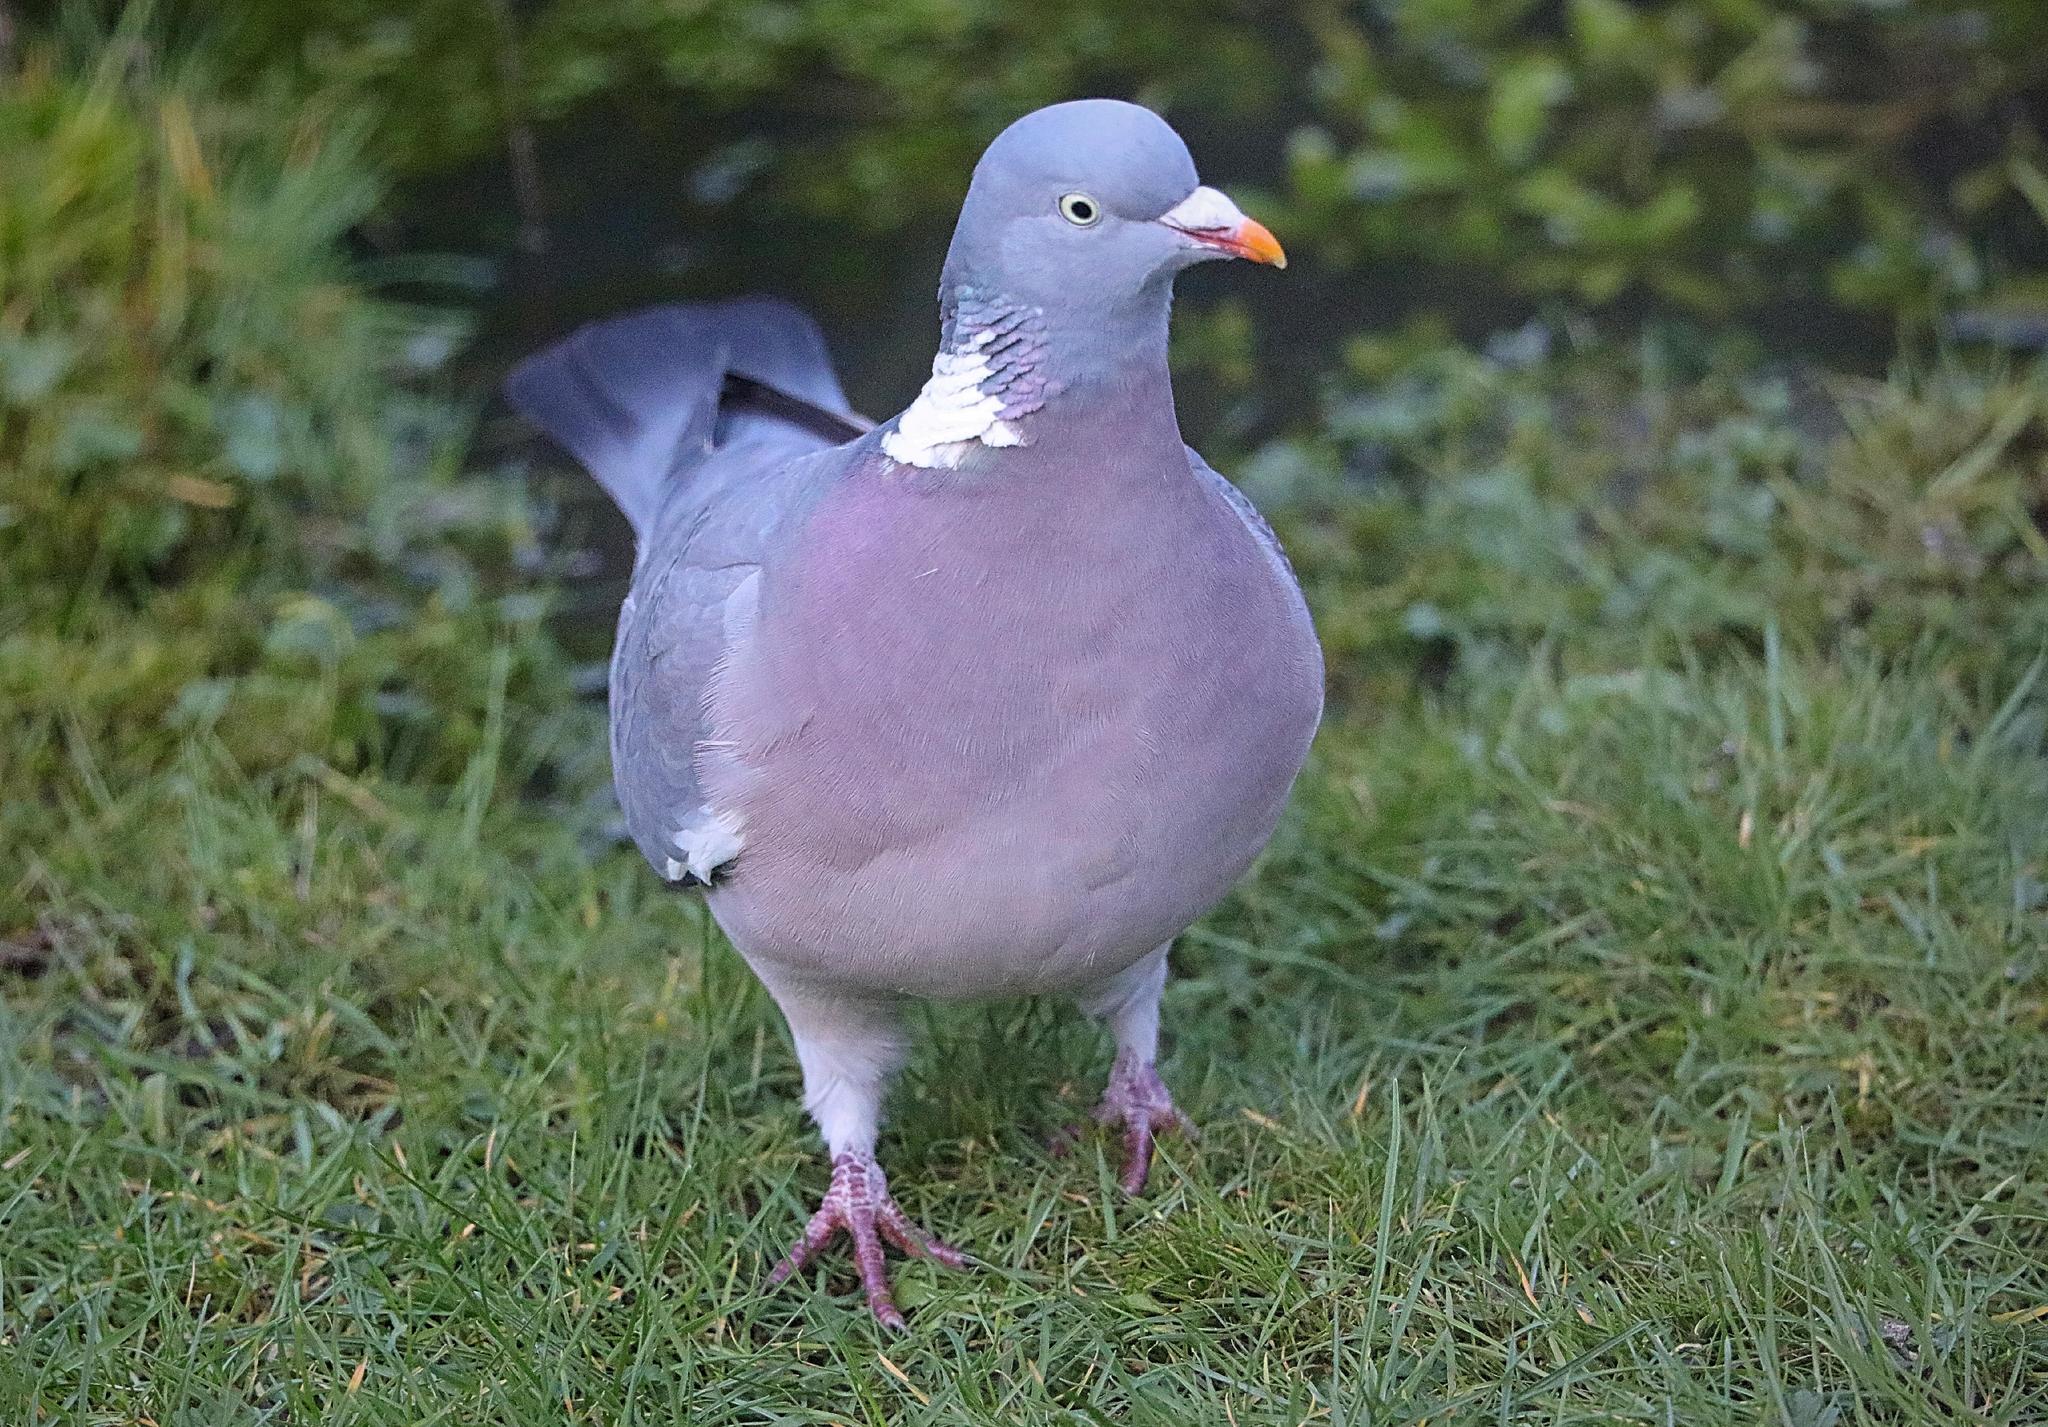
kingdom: Animalia
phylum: Chordata
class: Aves
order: Columbiformes
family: Columbidae
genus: Columba
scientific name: Columba palumbus
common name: Common wood pigeon
